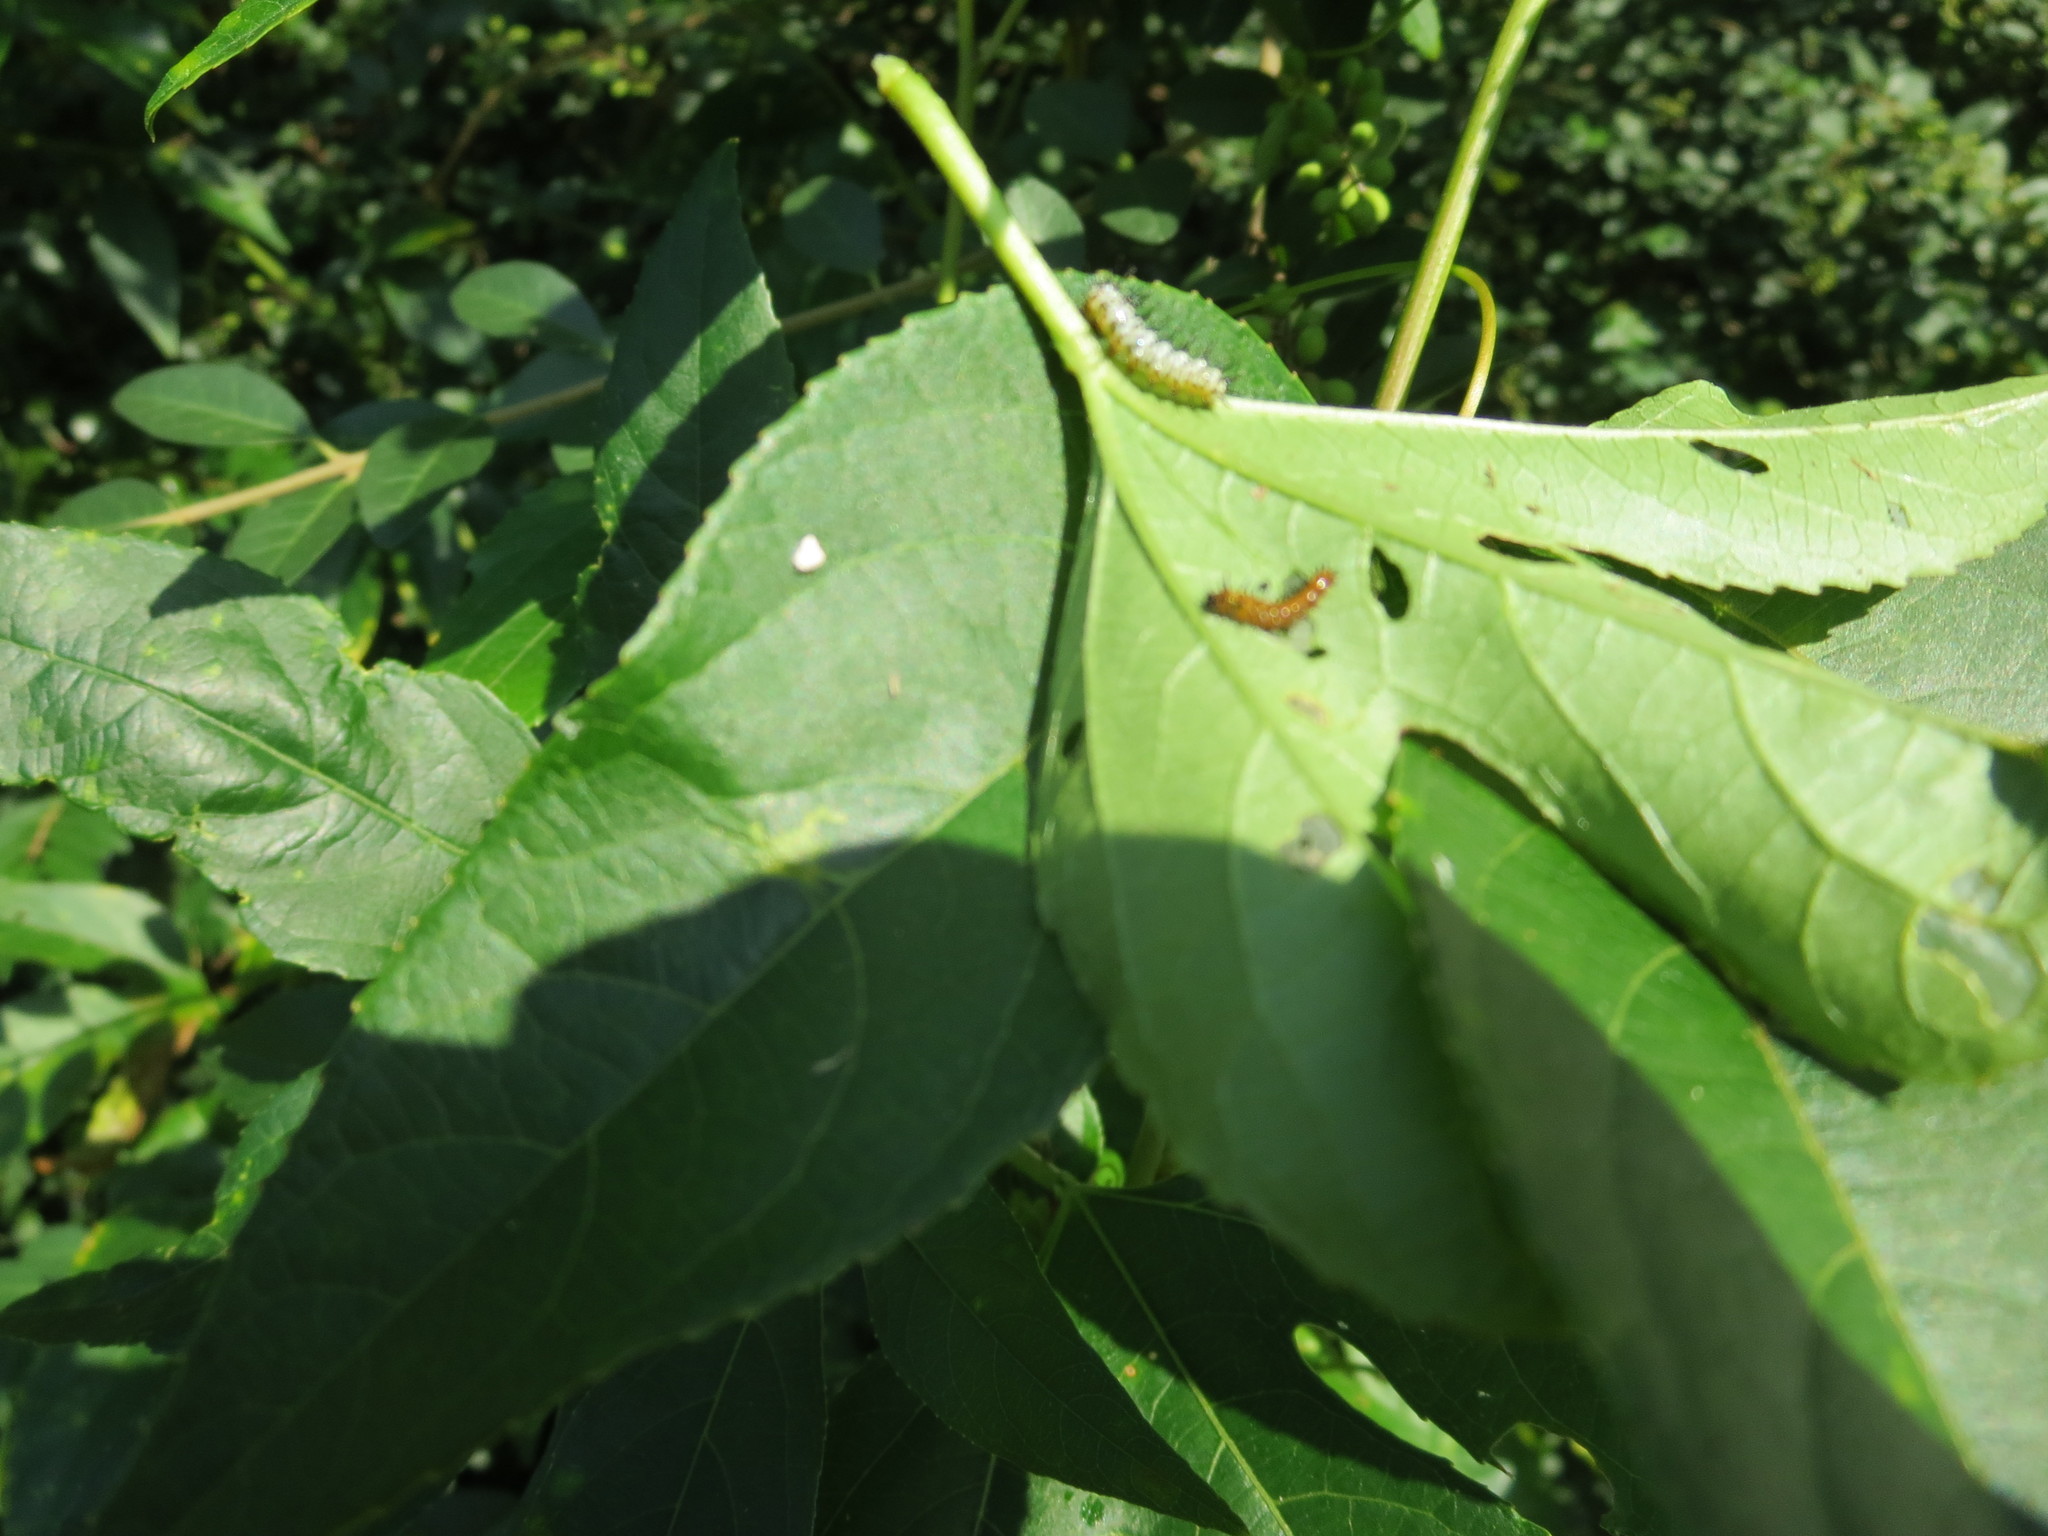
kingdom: Animalia
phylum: Arthropoda
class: Insecta
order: Lepidoptera
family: Nymphalidae
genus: Dione
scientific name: Dione vanillae
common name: Gulf fritillary
